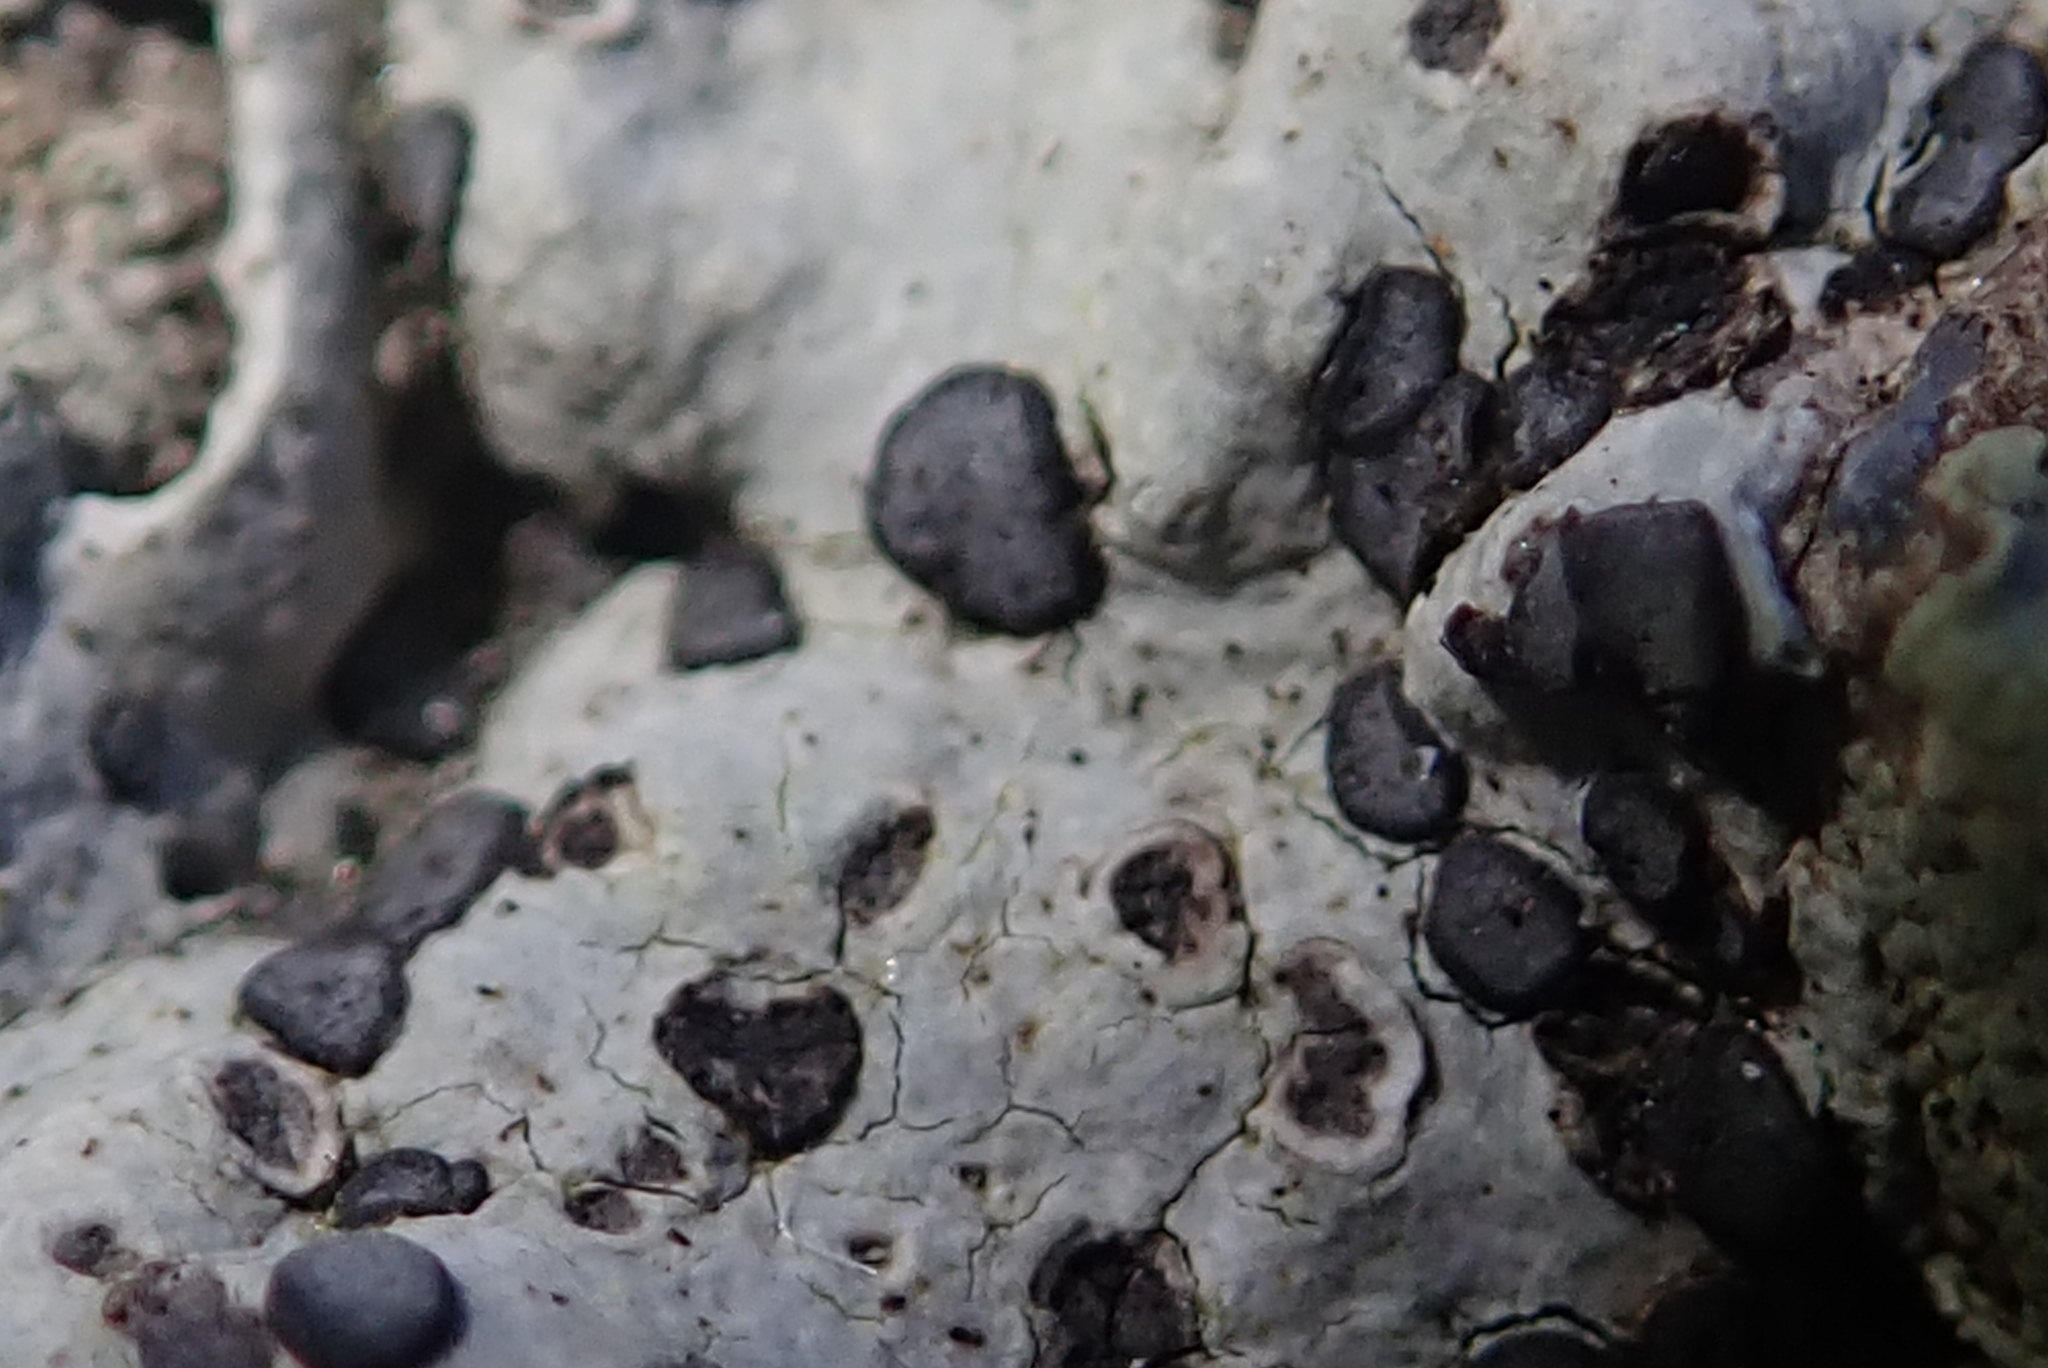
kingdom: Fungi
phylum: Ascomycota
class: Lecanoromycetes
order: Lecideales
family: Lecideaceae
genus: Porpidia
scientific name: Porpidia albocaerulescens
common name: Smokey-eyed boulder lichen
